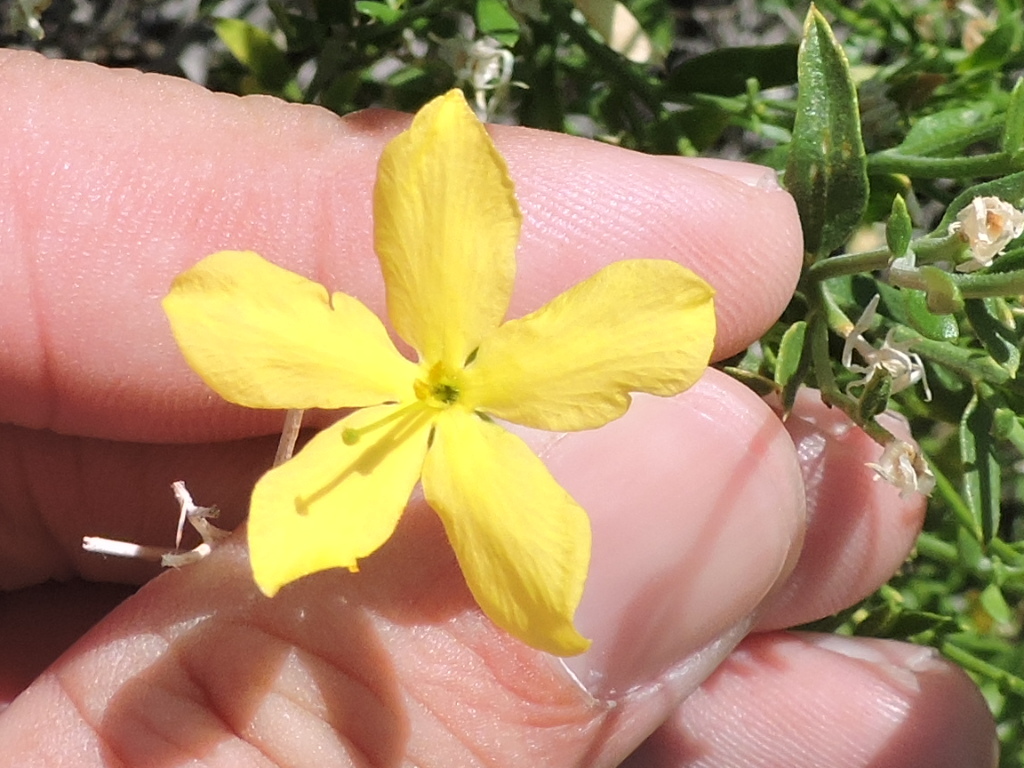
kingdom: Plantae
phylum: Tracheophyta
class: Magnoliopsida
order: Lamiales
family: Oleaceae
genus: Menodora
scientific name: Menodora scabra
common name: Rough menodora
